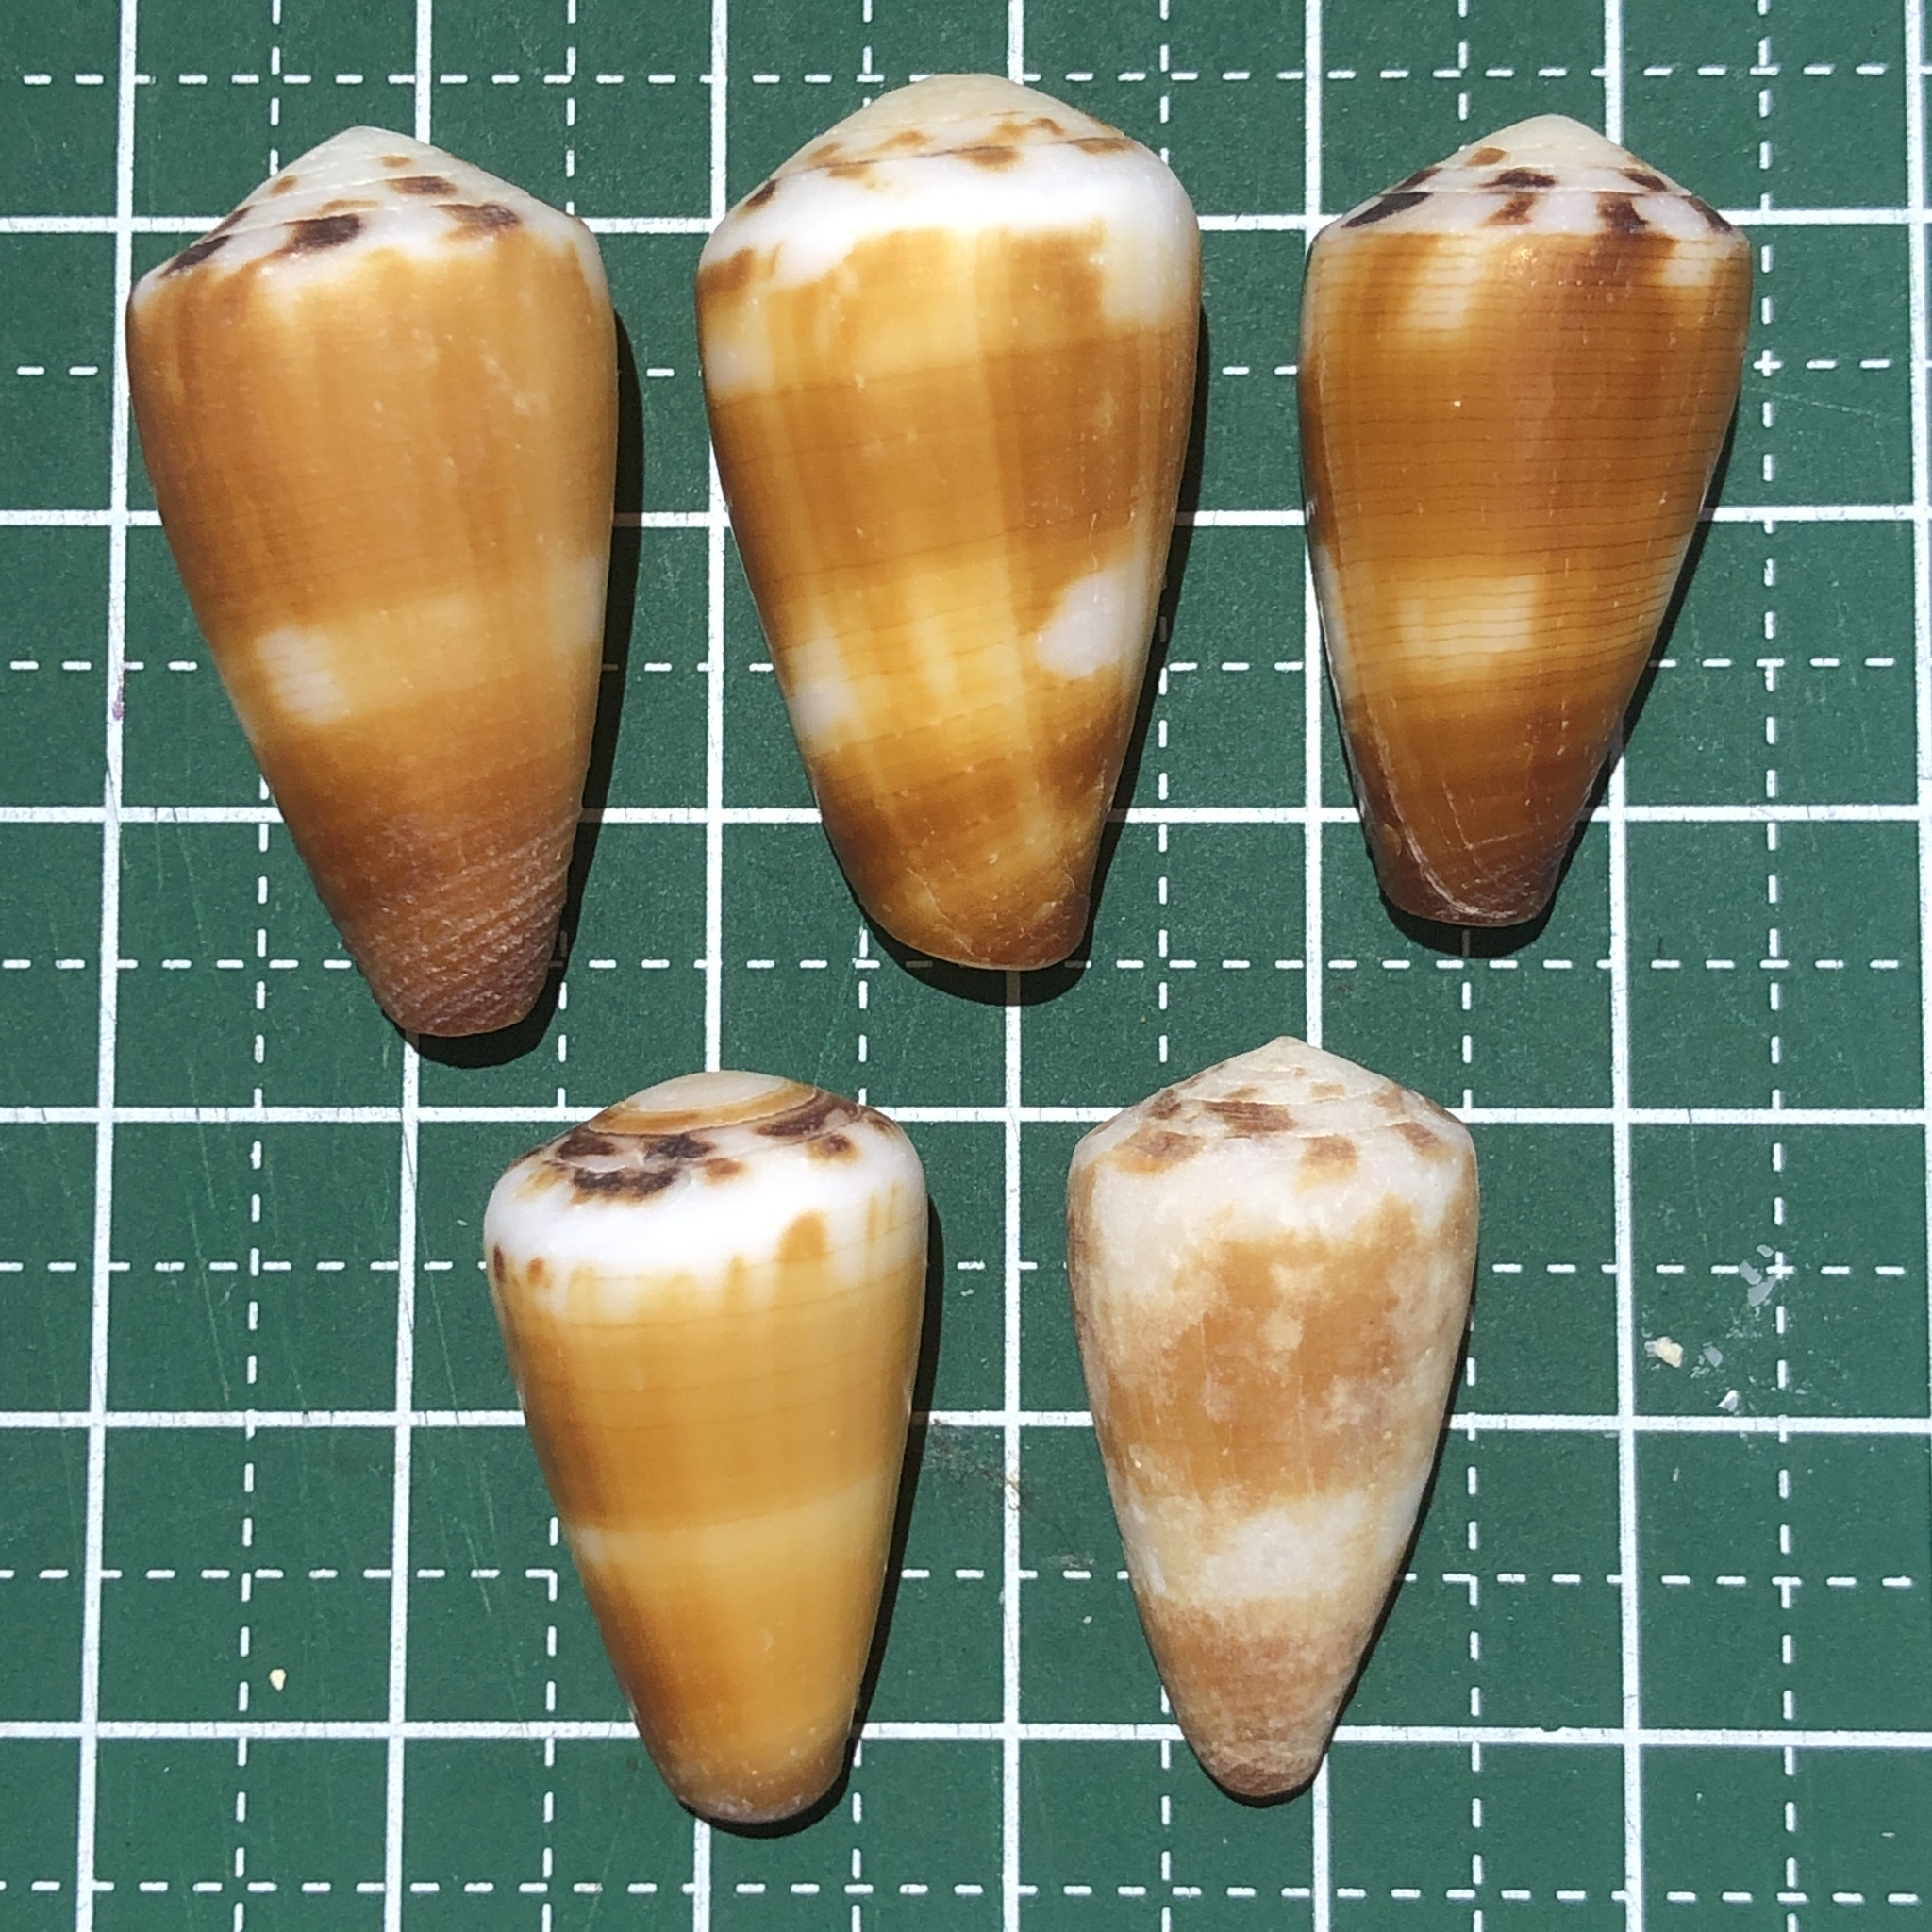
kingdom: Animalia
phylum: Mollusca
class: Gastropoda
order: Neogastropoda
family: Conidae
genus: Conus
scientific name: Conus planorbis
